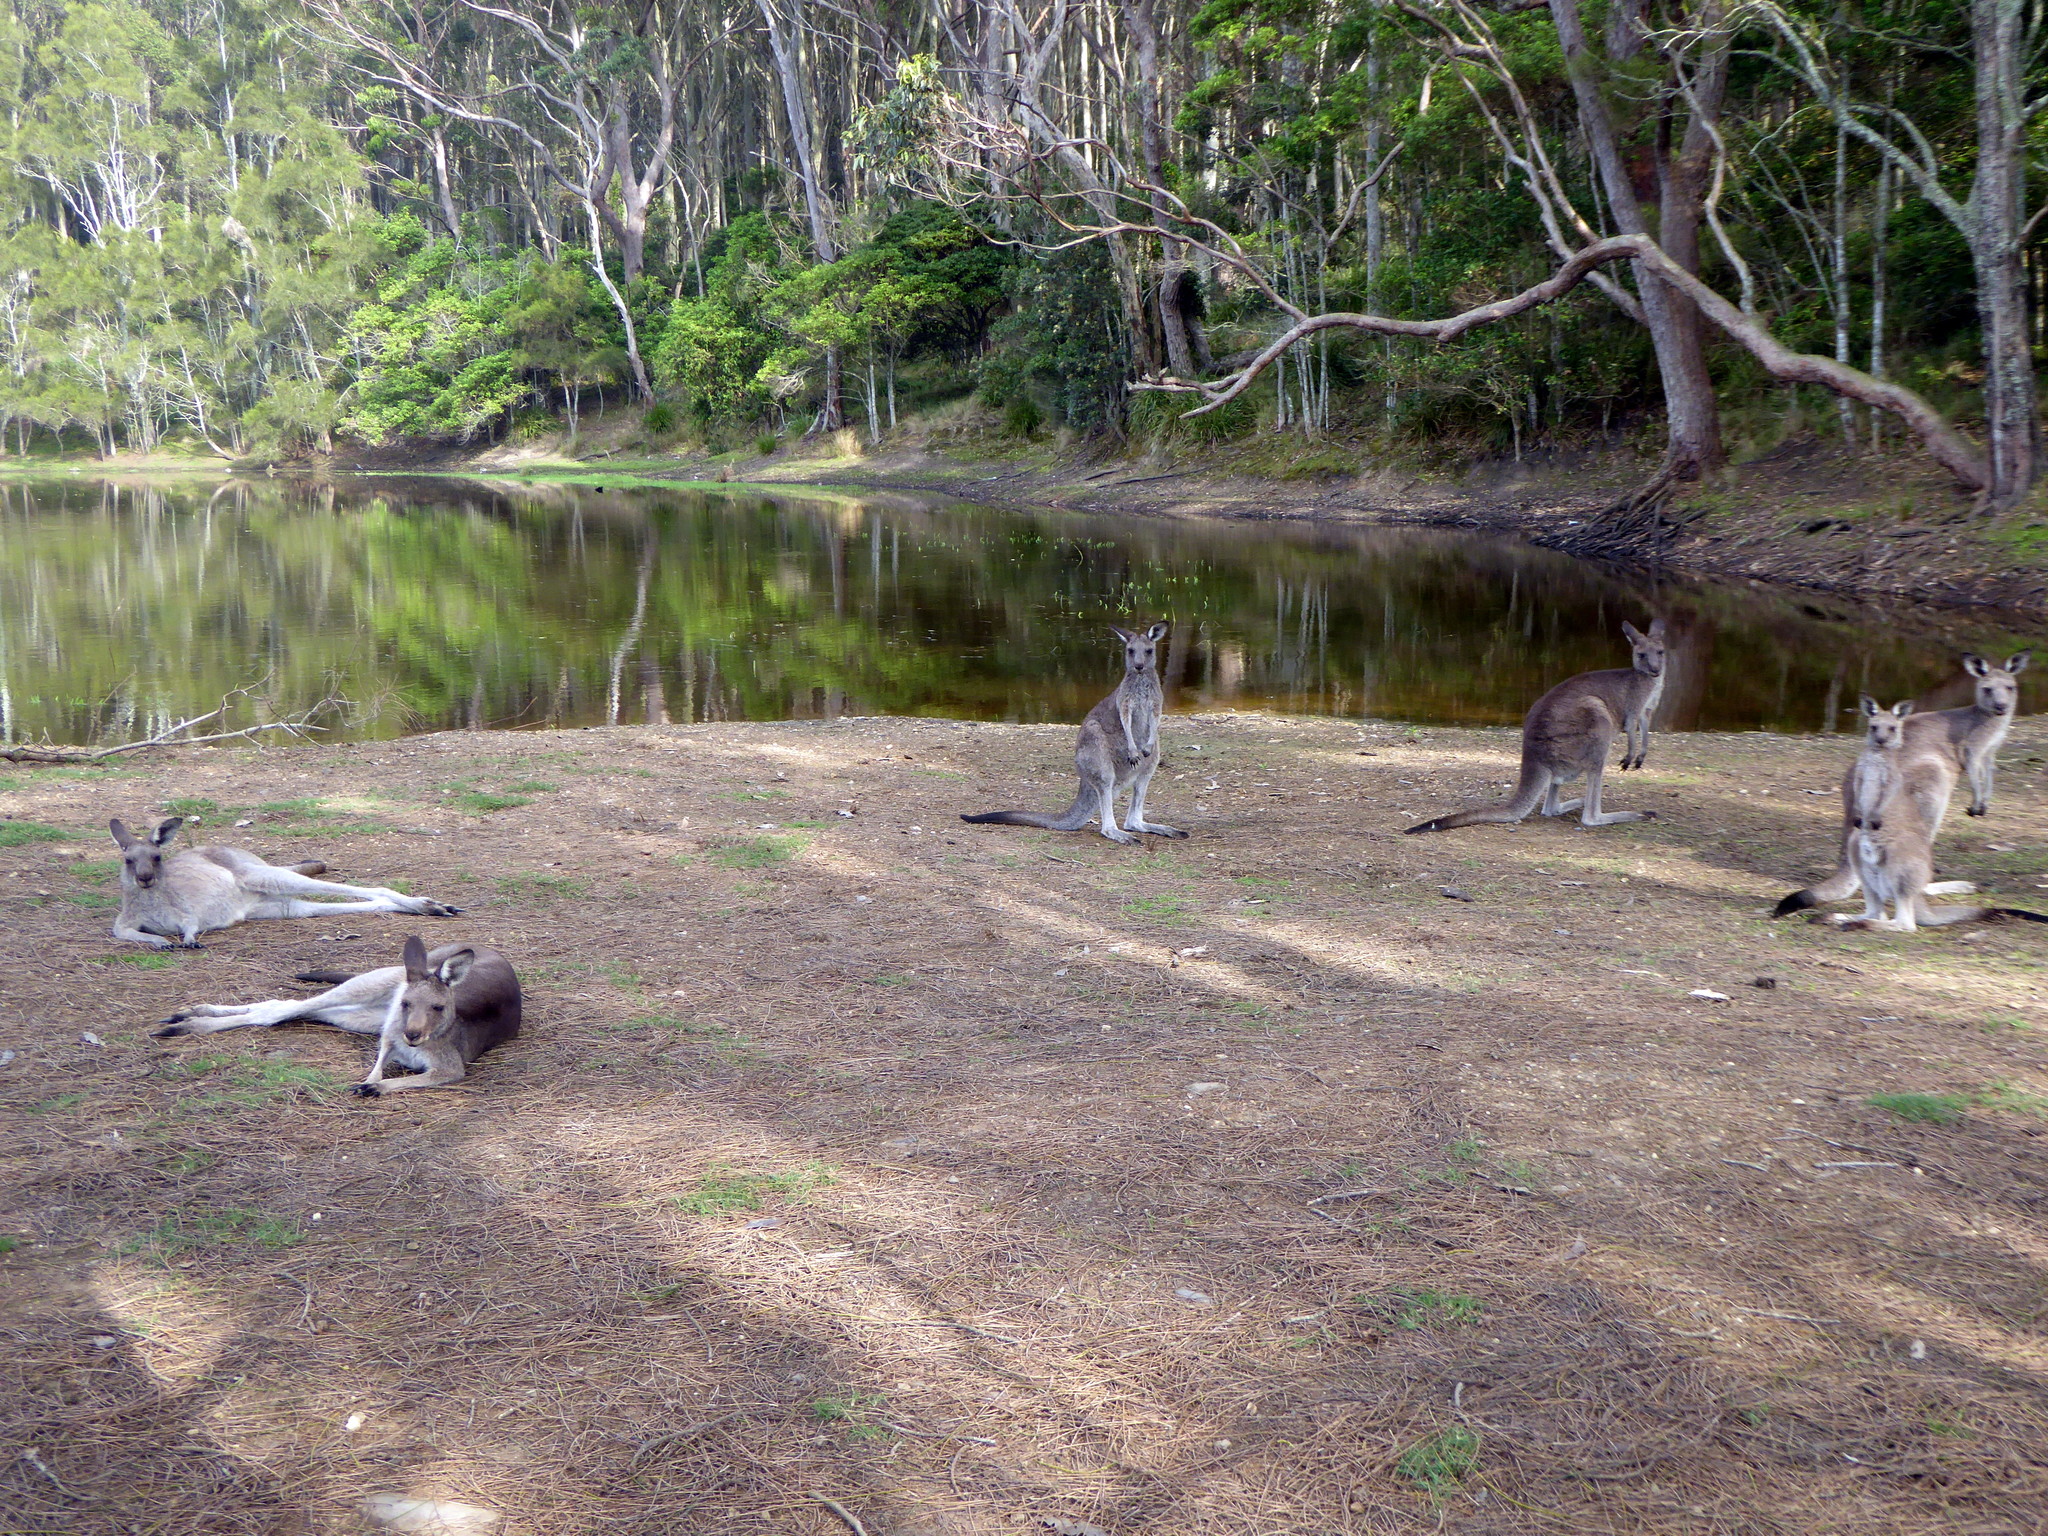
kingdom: Animalia
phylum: Chordata
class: Mammalia
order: Diprotodontia
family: Macropodidae
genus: Macropus
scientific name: Macropus giganteus
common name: Eastern grey kangaroo
